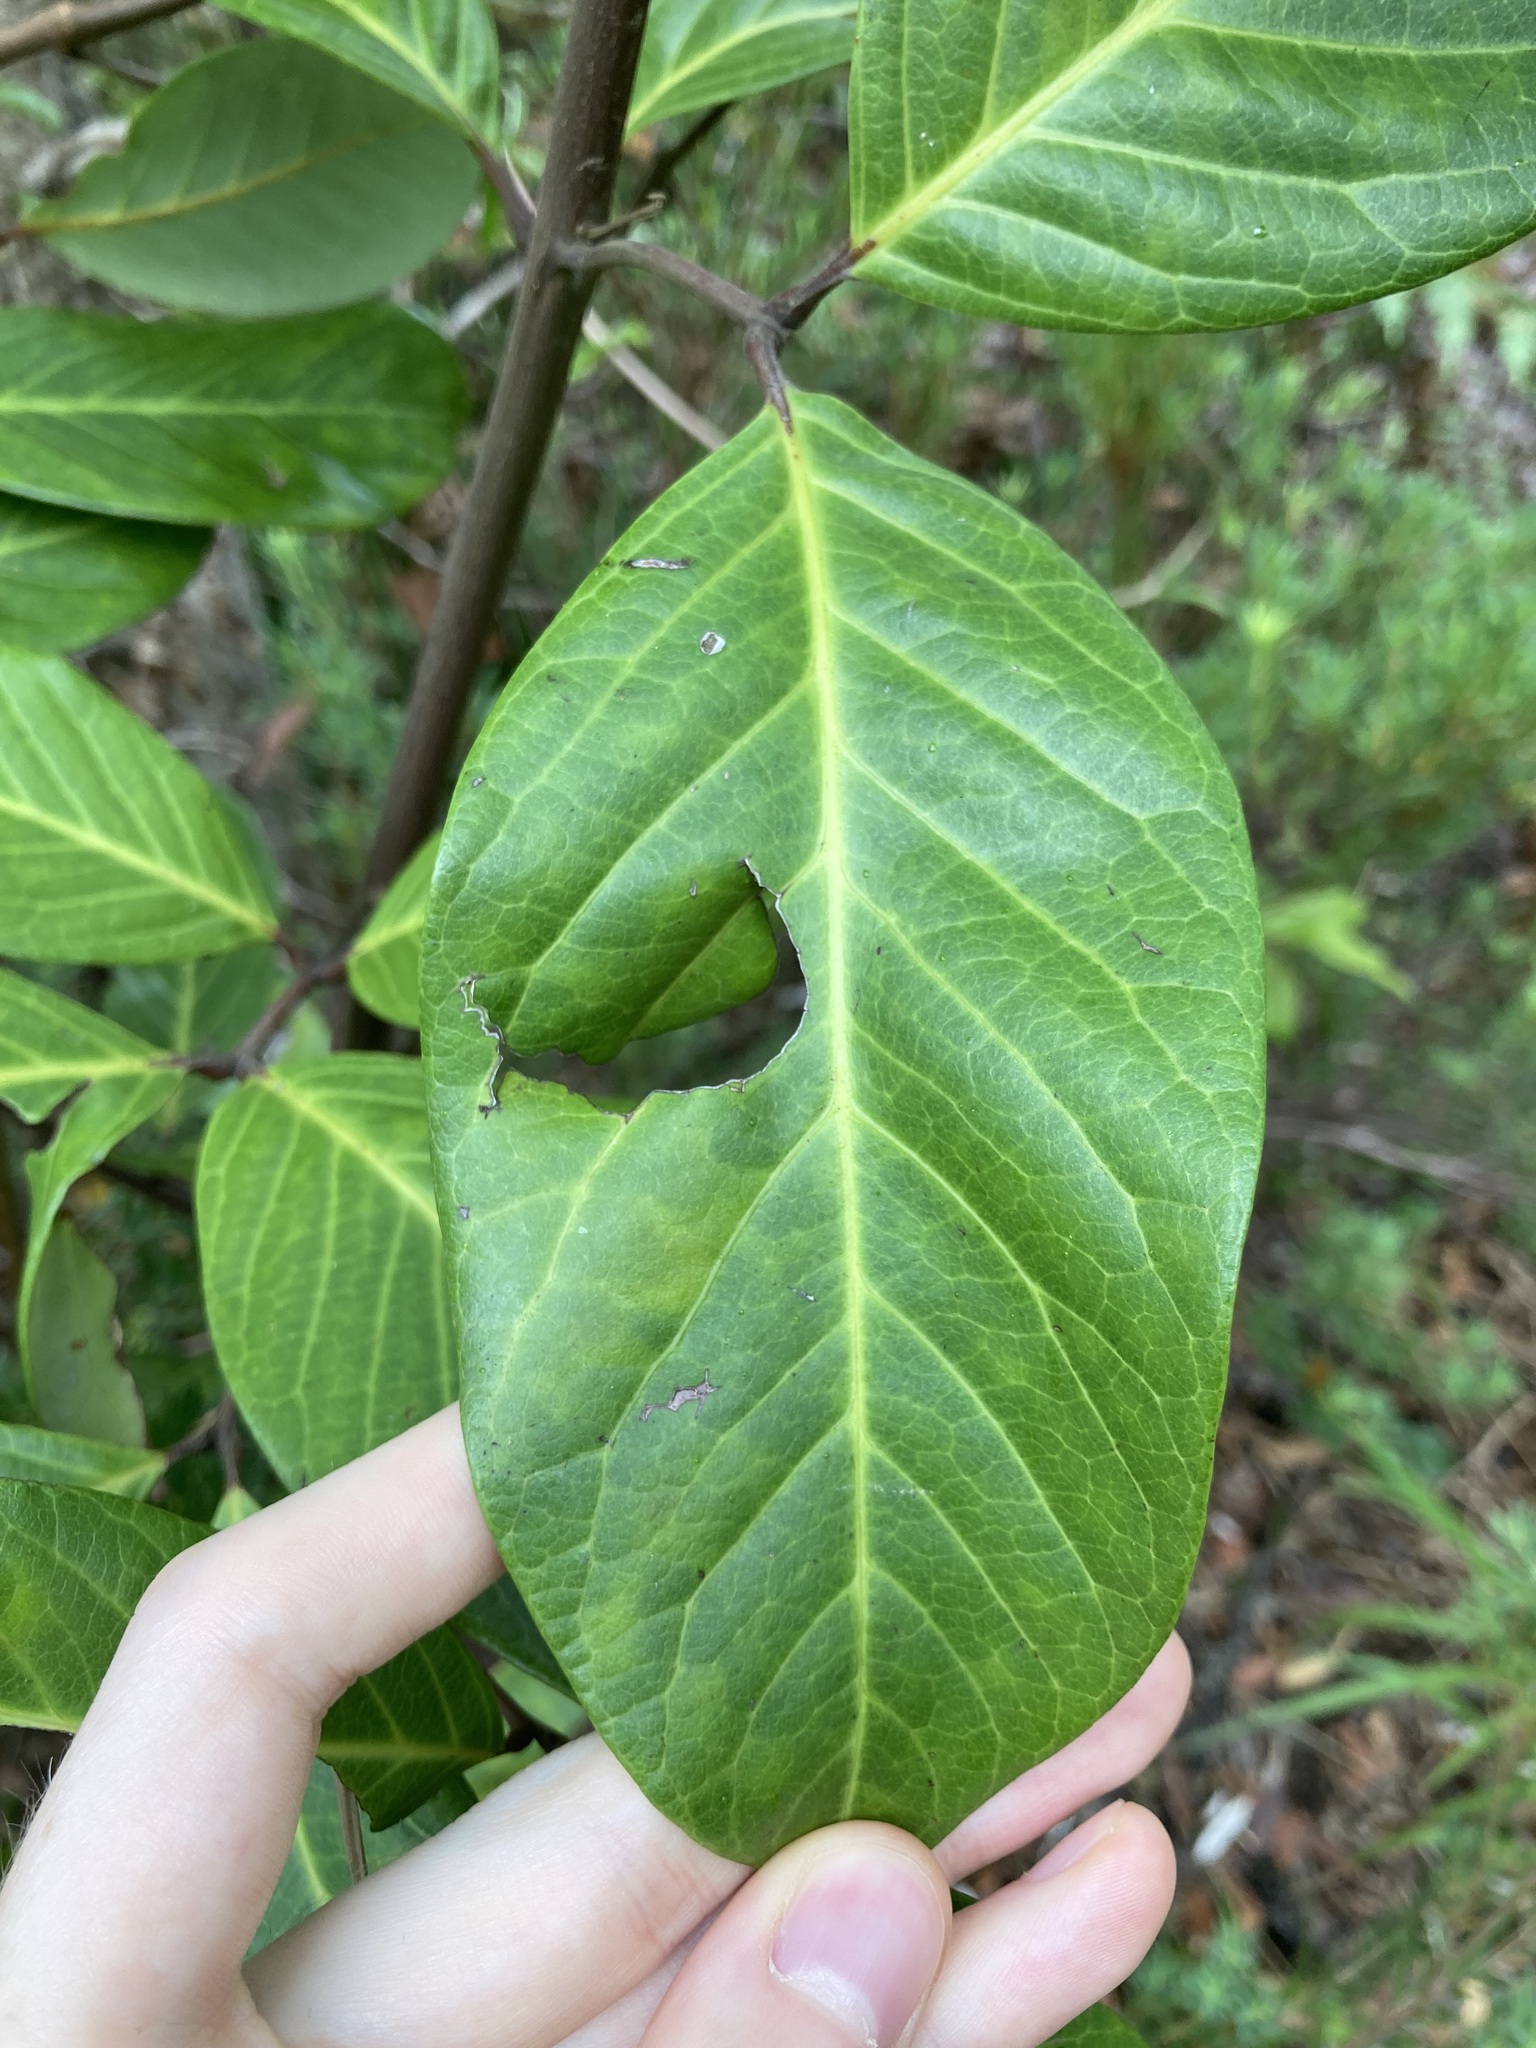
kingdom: Plantae
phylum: Tracheophyta
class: Magnoliopsida
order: Sapindales
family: Sapindaceae
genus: Alectryon
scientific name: Alectryon coriaceus
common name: Beach alectryon
